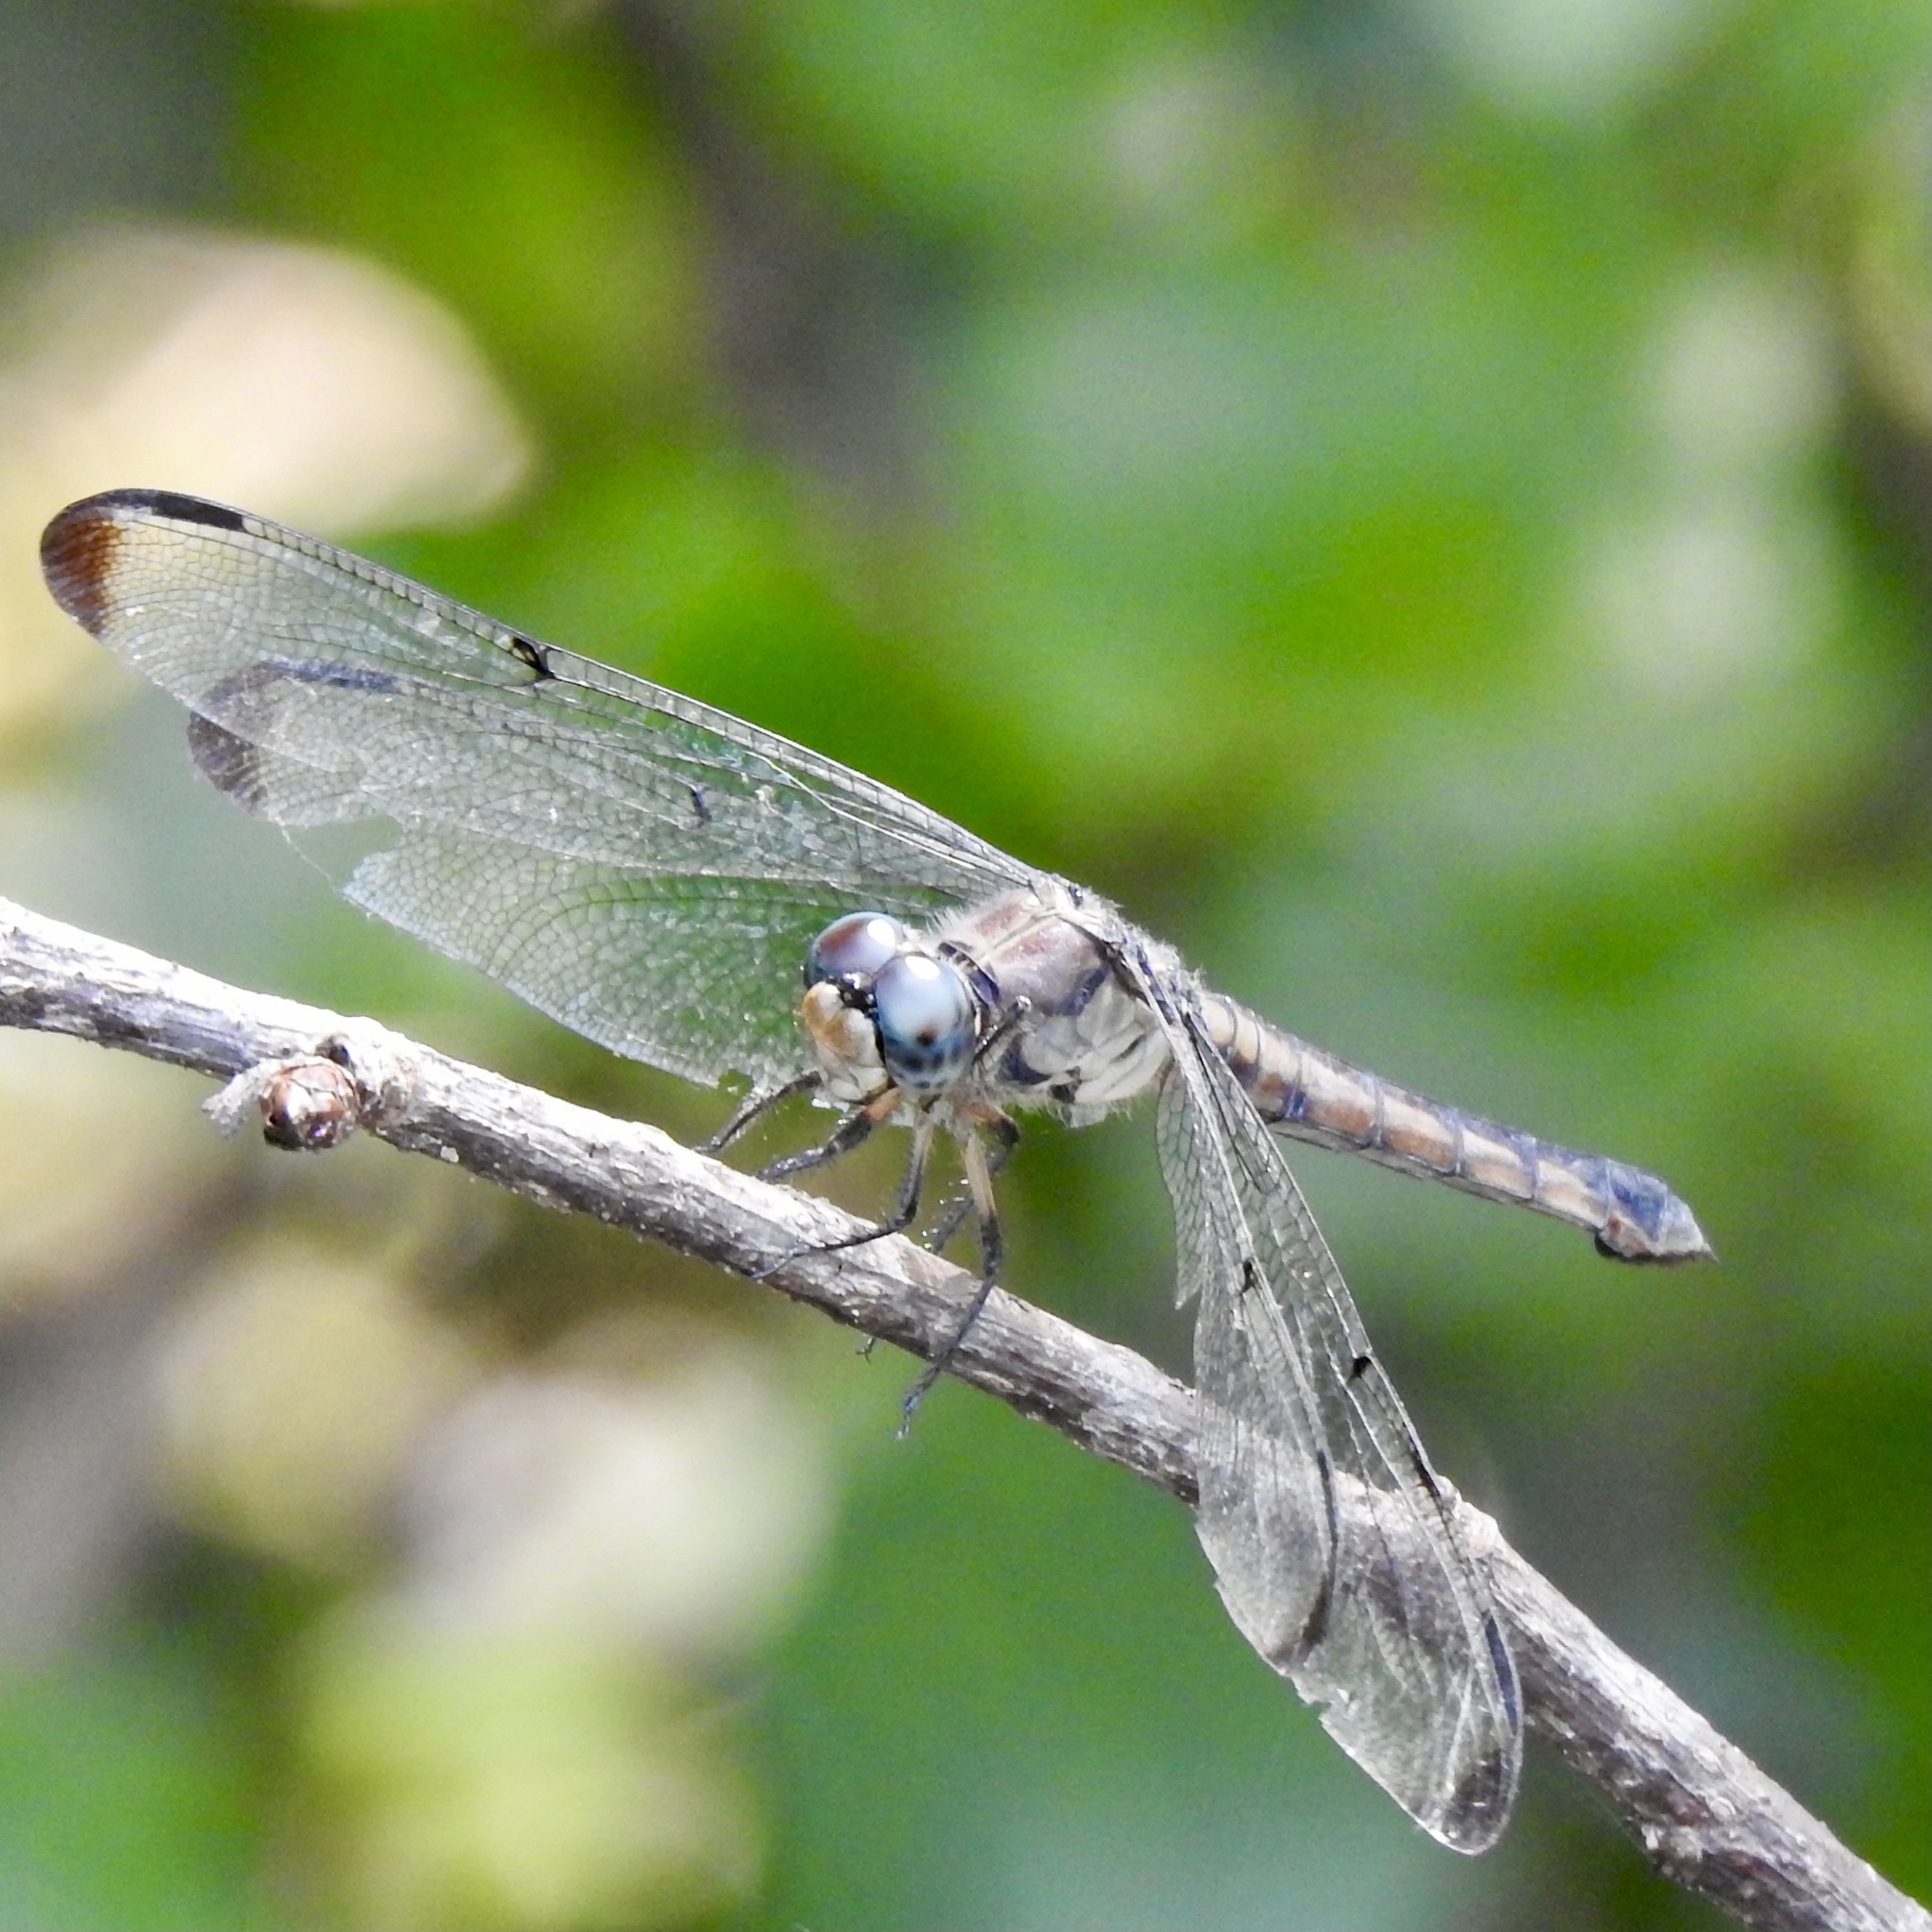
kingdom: Animalia
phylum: Arthropoda
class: Insecta
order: Odonata
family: Libellulidae
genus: Libellula
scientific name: Libellula vibrans
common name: Great blue skimmer
